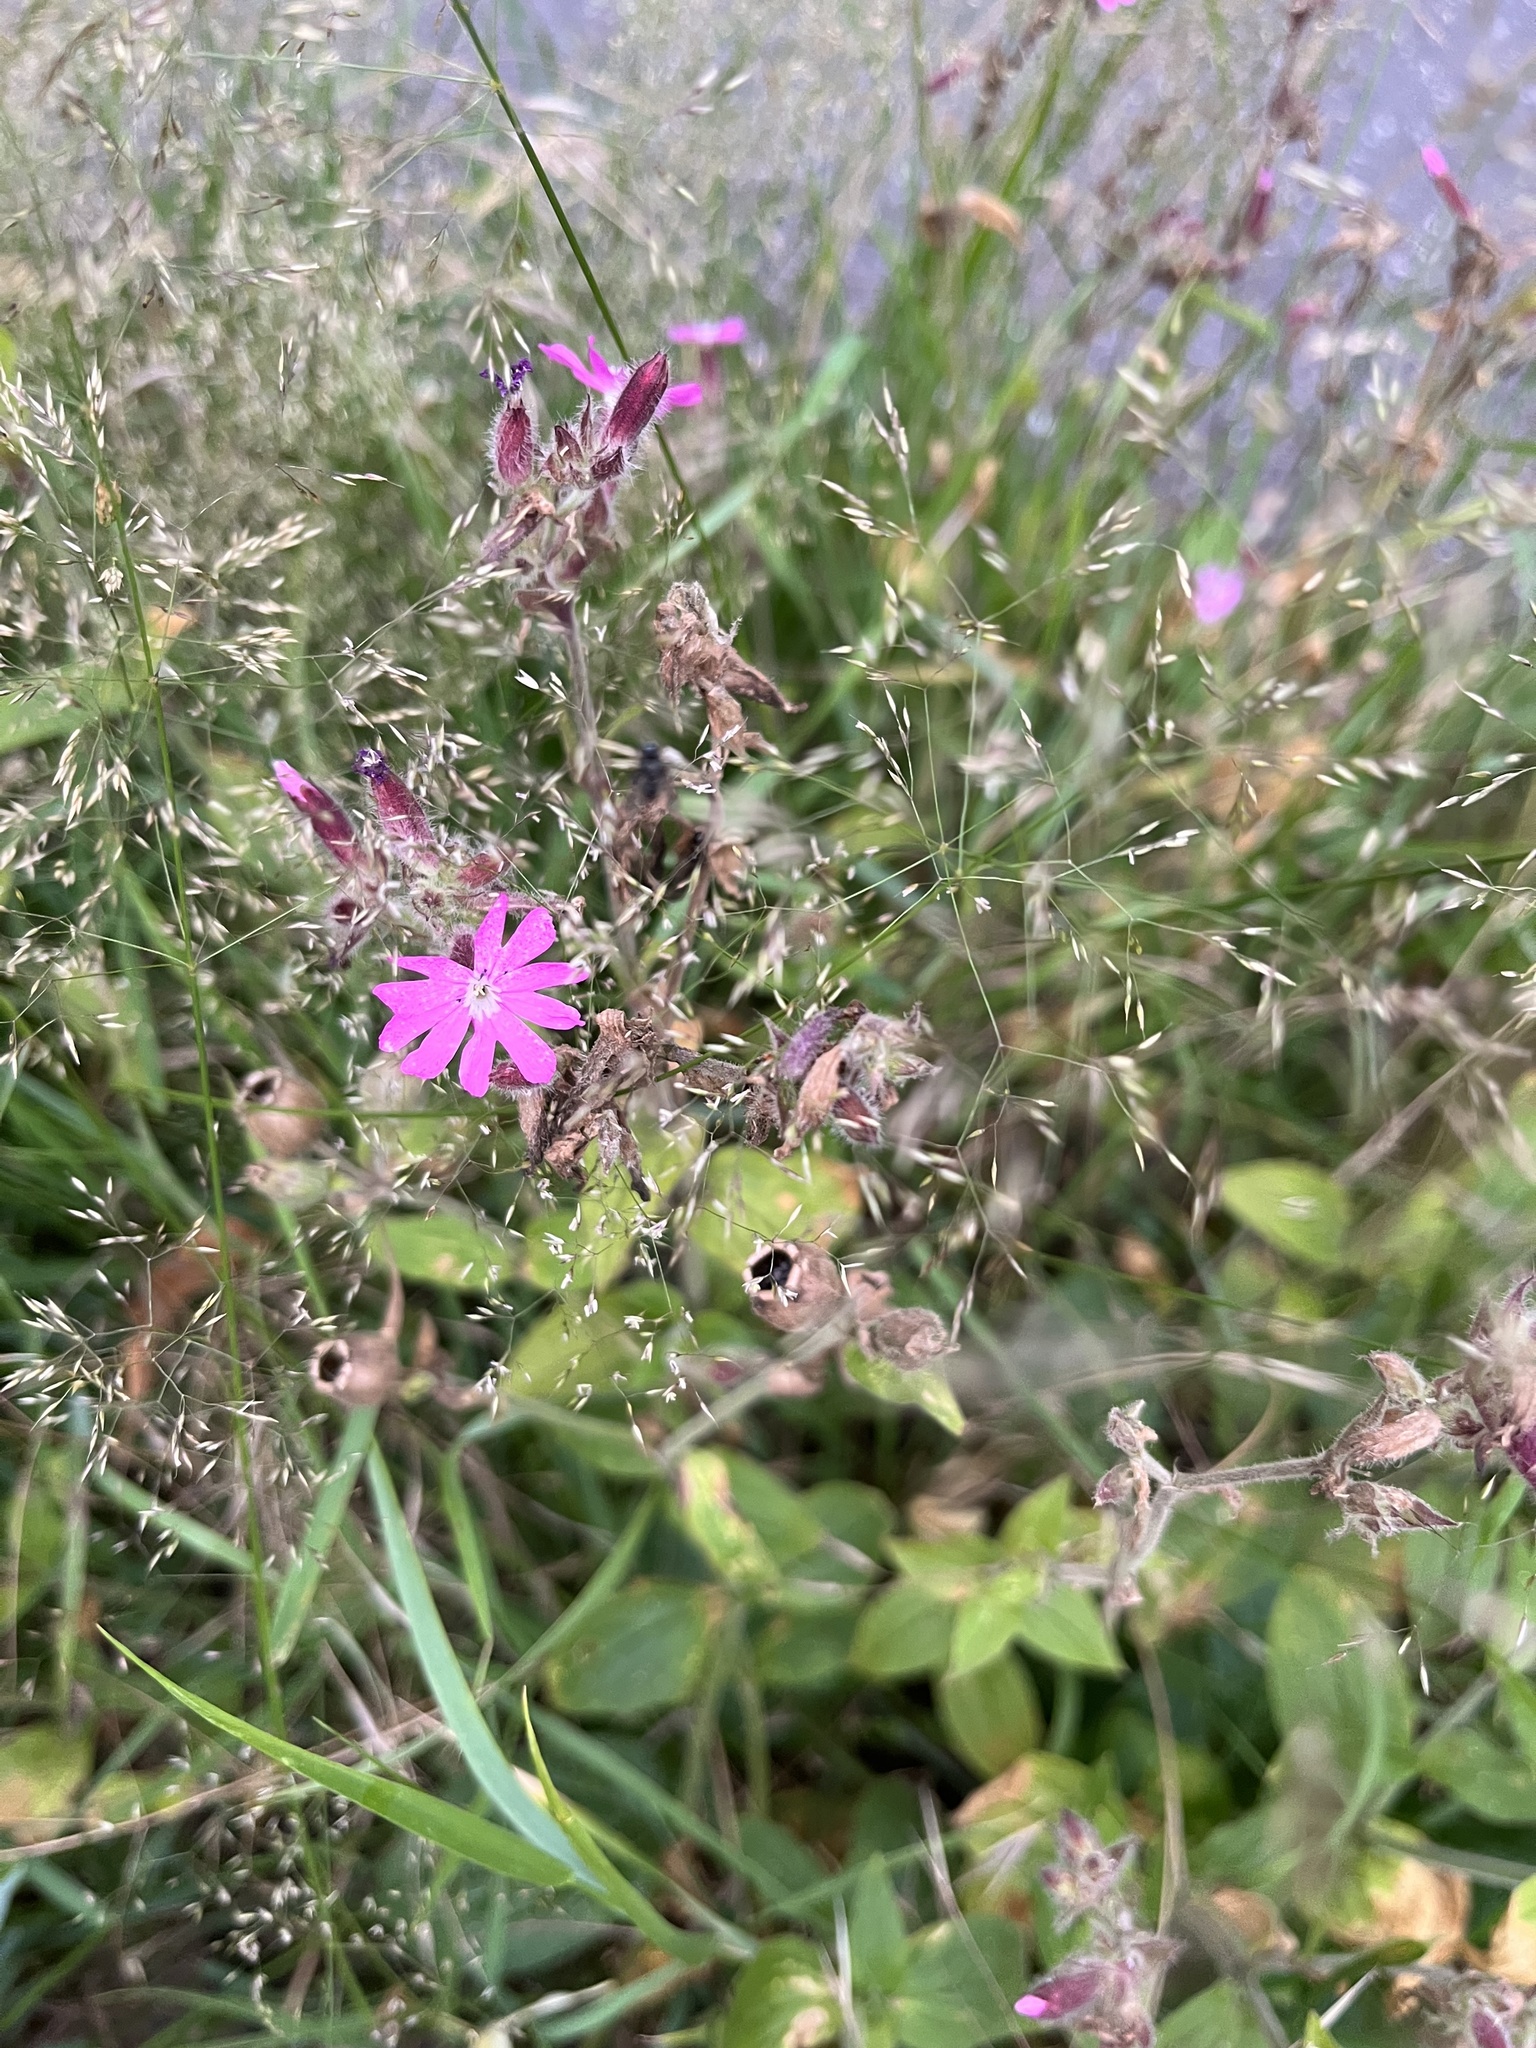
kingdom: Plantae
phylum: Tracheophyta
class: Magnoliopsida
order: Caryophyllales
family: Caryophyllaceae
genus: Silene
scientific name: Silene dioica
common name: Red campion
